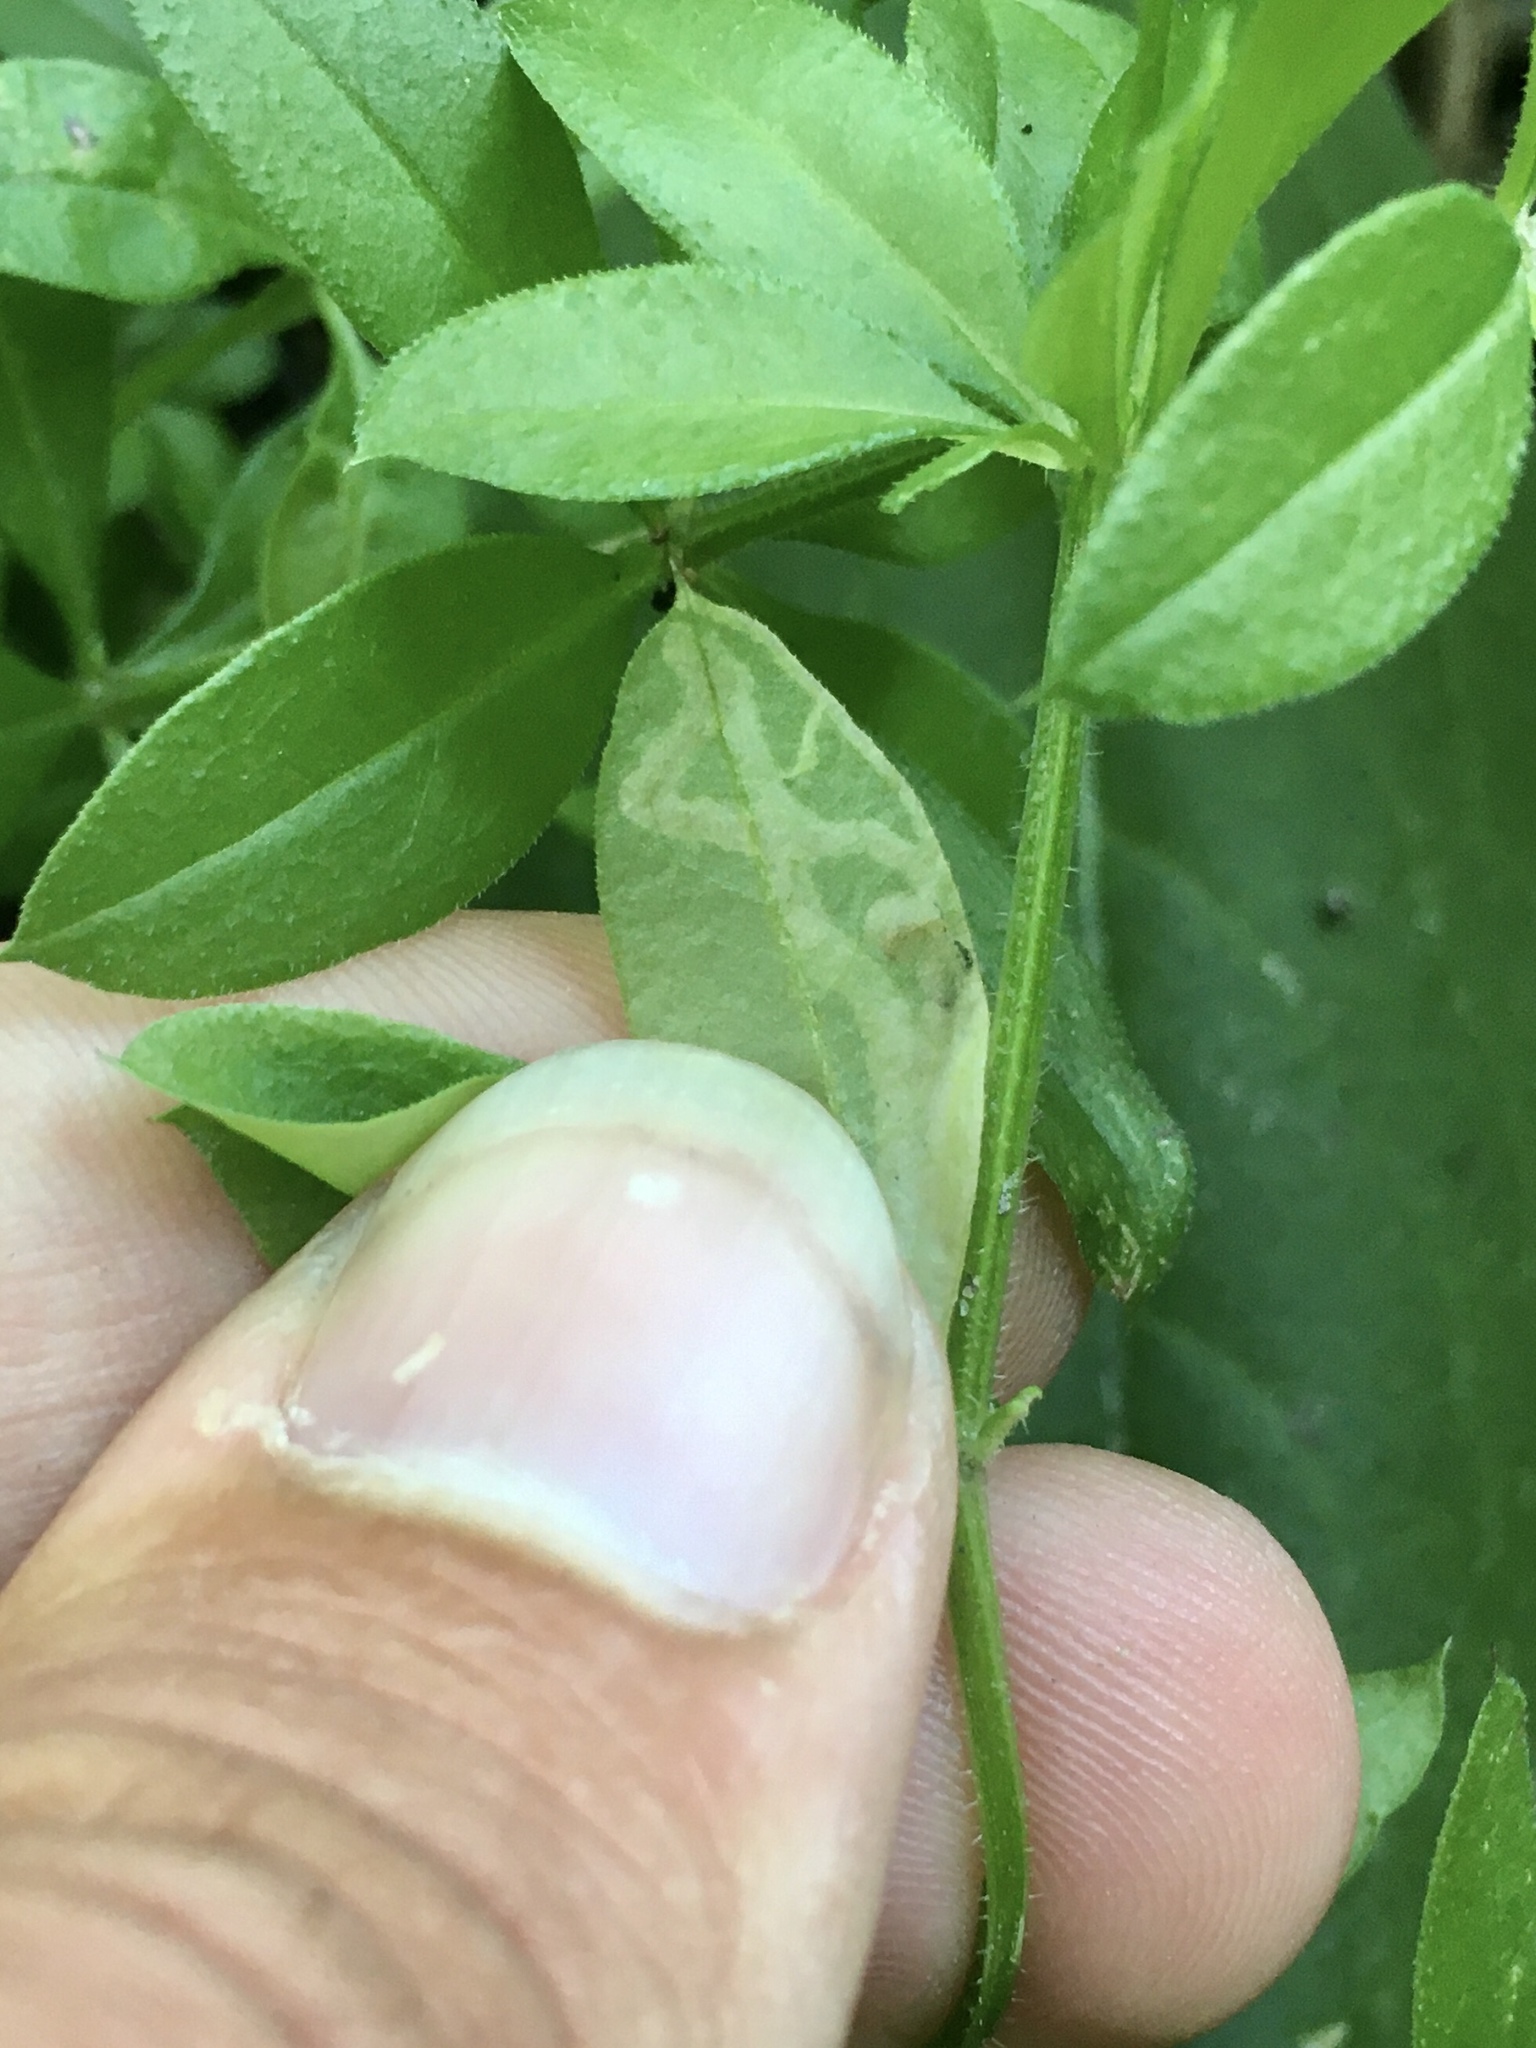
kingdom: Animalia
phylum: Arthropoda
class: Insecta
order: Diptera
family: Agromyzidae
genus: Liriomyza
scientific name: Liriomyza galiivora
